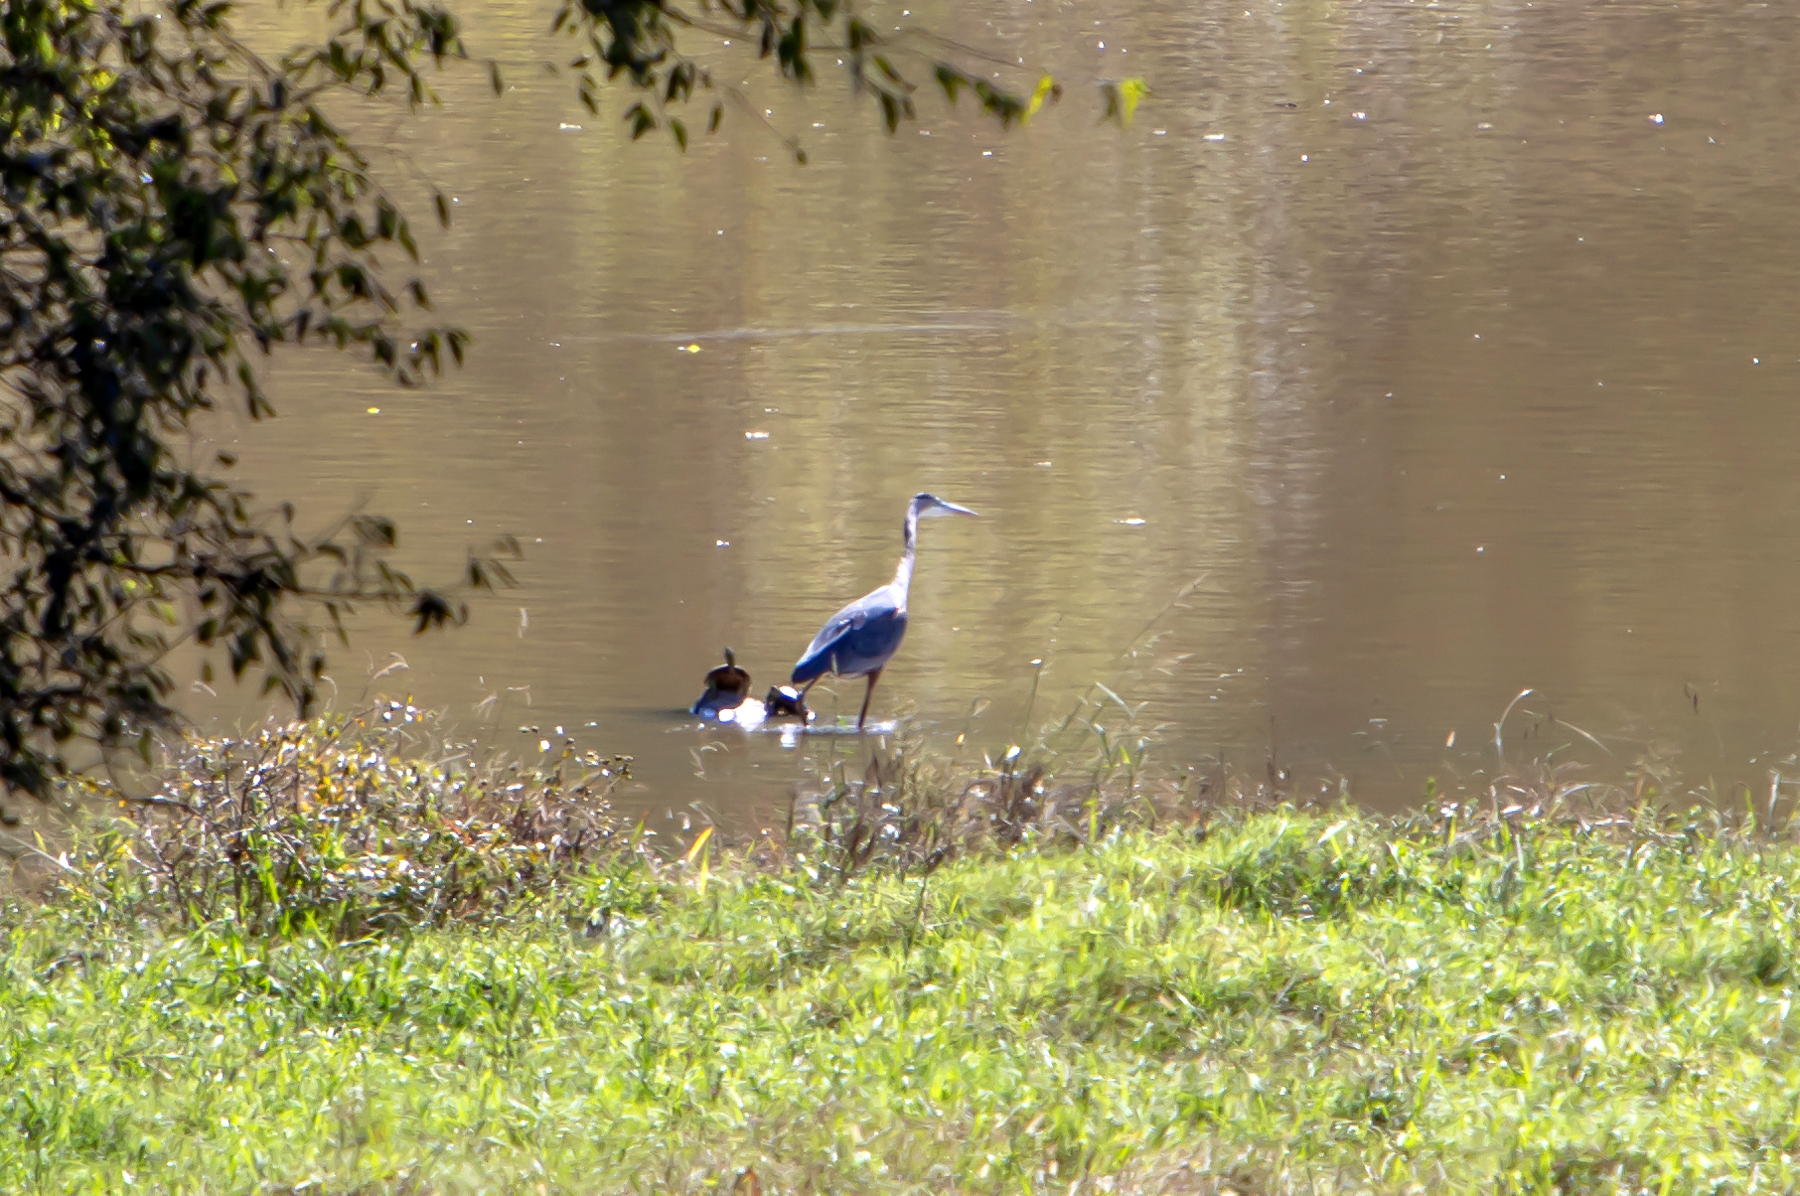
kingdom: Animalia
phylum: Chordata
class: Aves
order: Pelecaniformes
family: Ardeidae
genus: Ardea
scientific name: Ardea herodias
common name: Great blue heron
